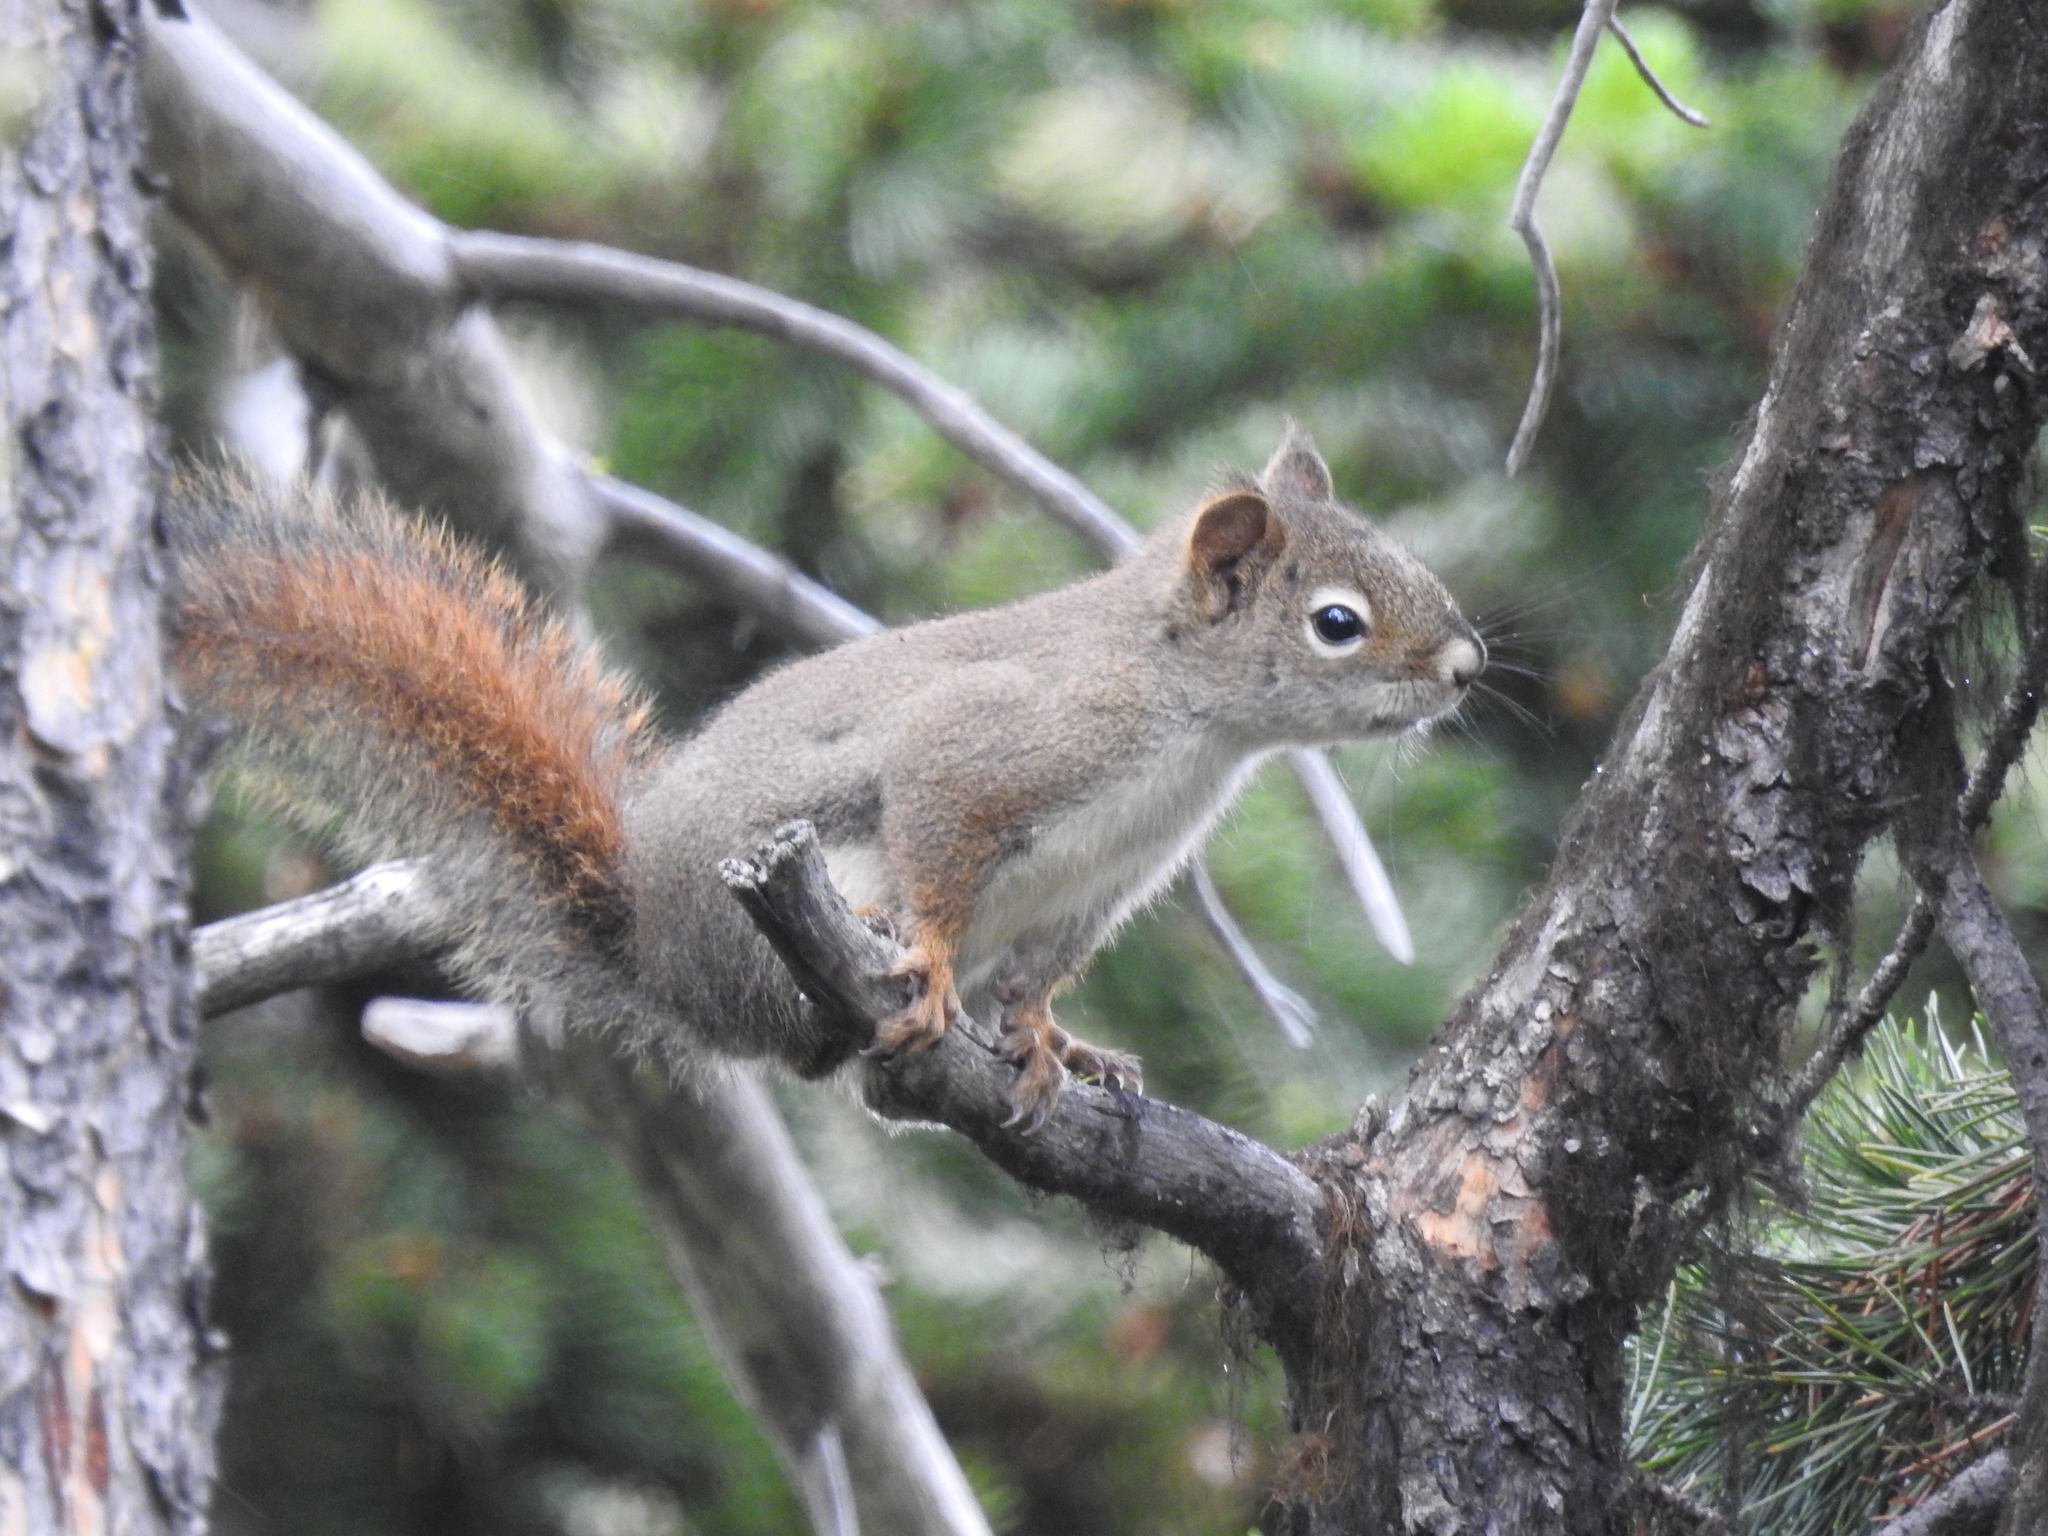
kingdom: Animalia
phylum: Chordata
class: Mammalia
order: Rodentia
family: Sciuridae
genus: Tamiasciurus
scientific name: Tamiasciurus hudsonicus
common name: Red squirrel
